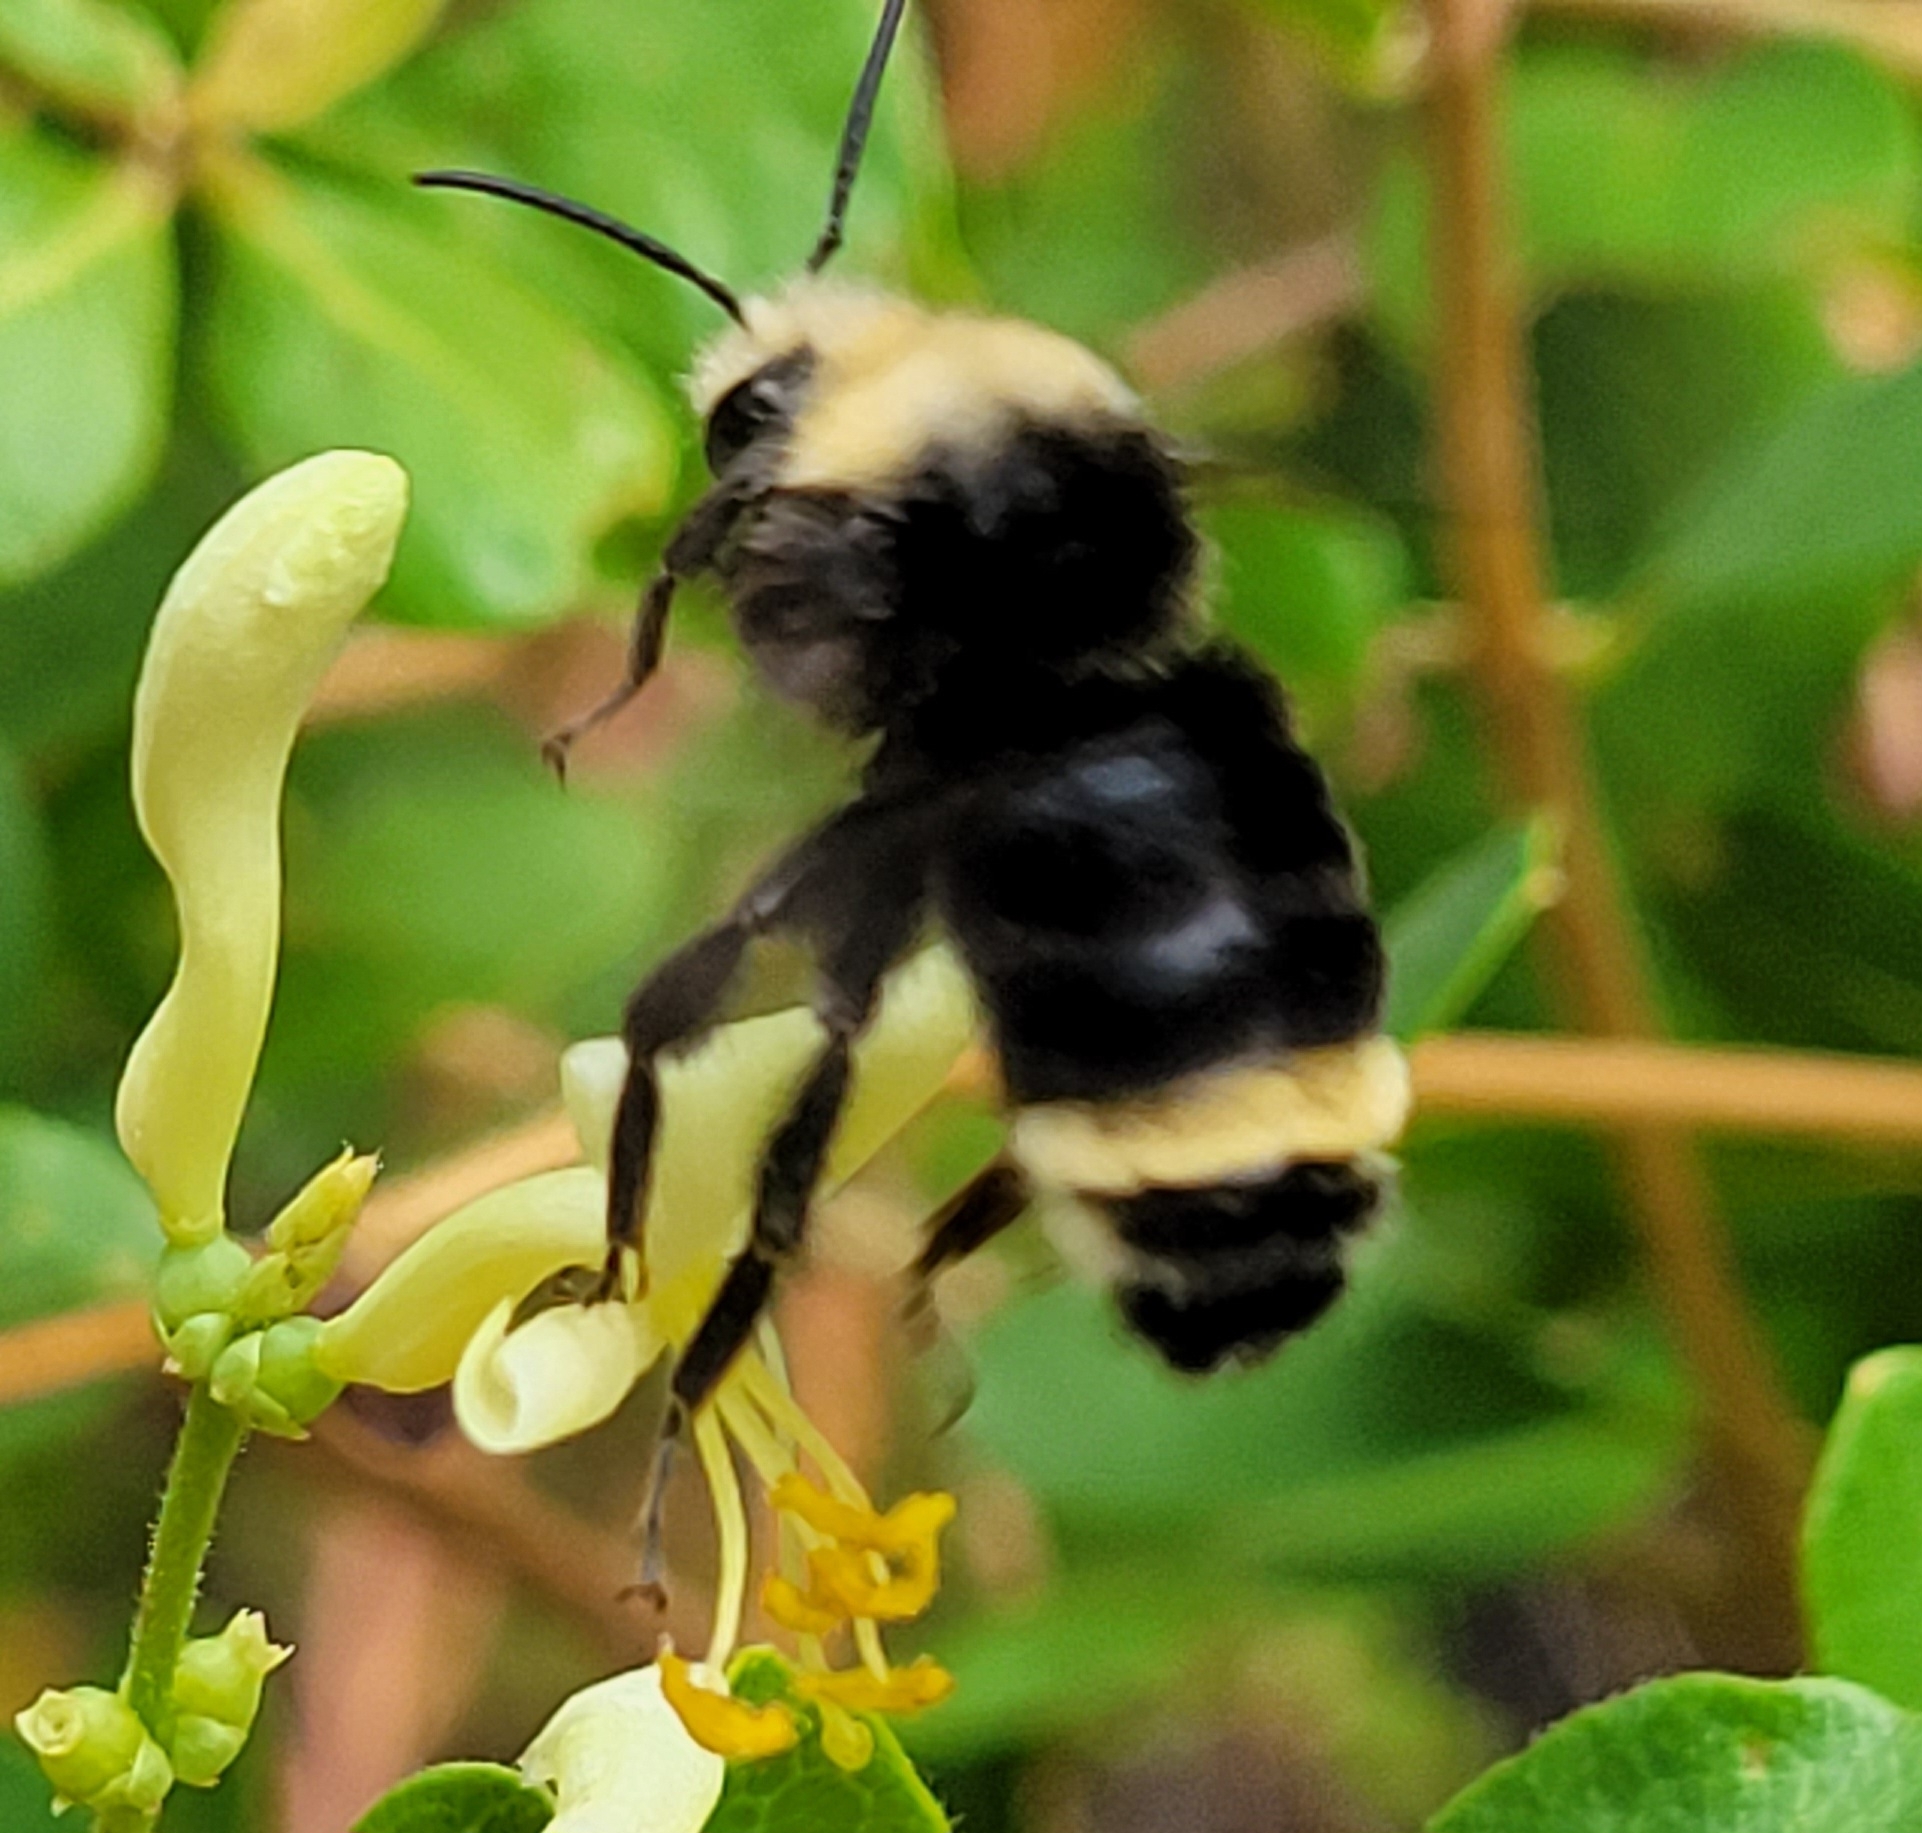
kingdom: Animalia
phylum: Arthropoda
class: Insecta
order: Hymenoptera
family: Apidae
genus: Bombus
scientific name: Bombus vosnesenskii
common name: Vosnesensky bumble bee
